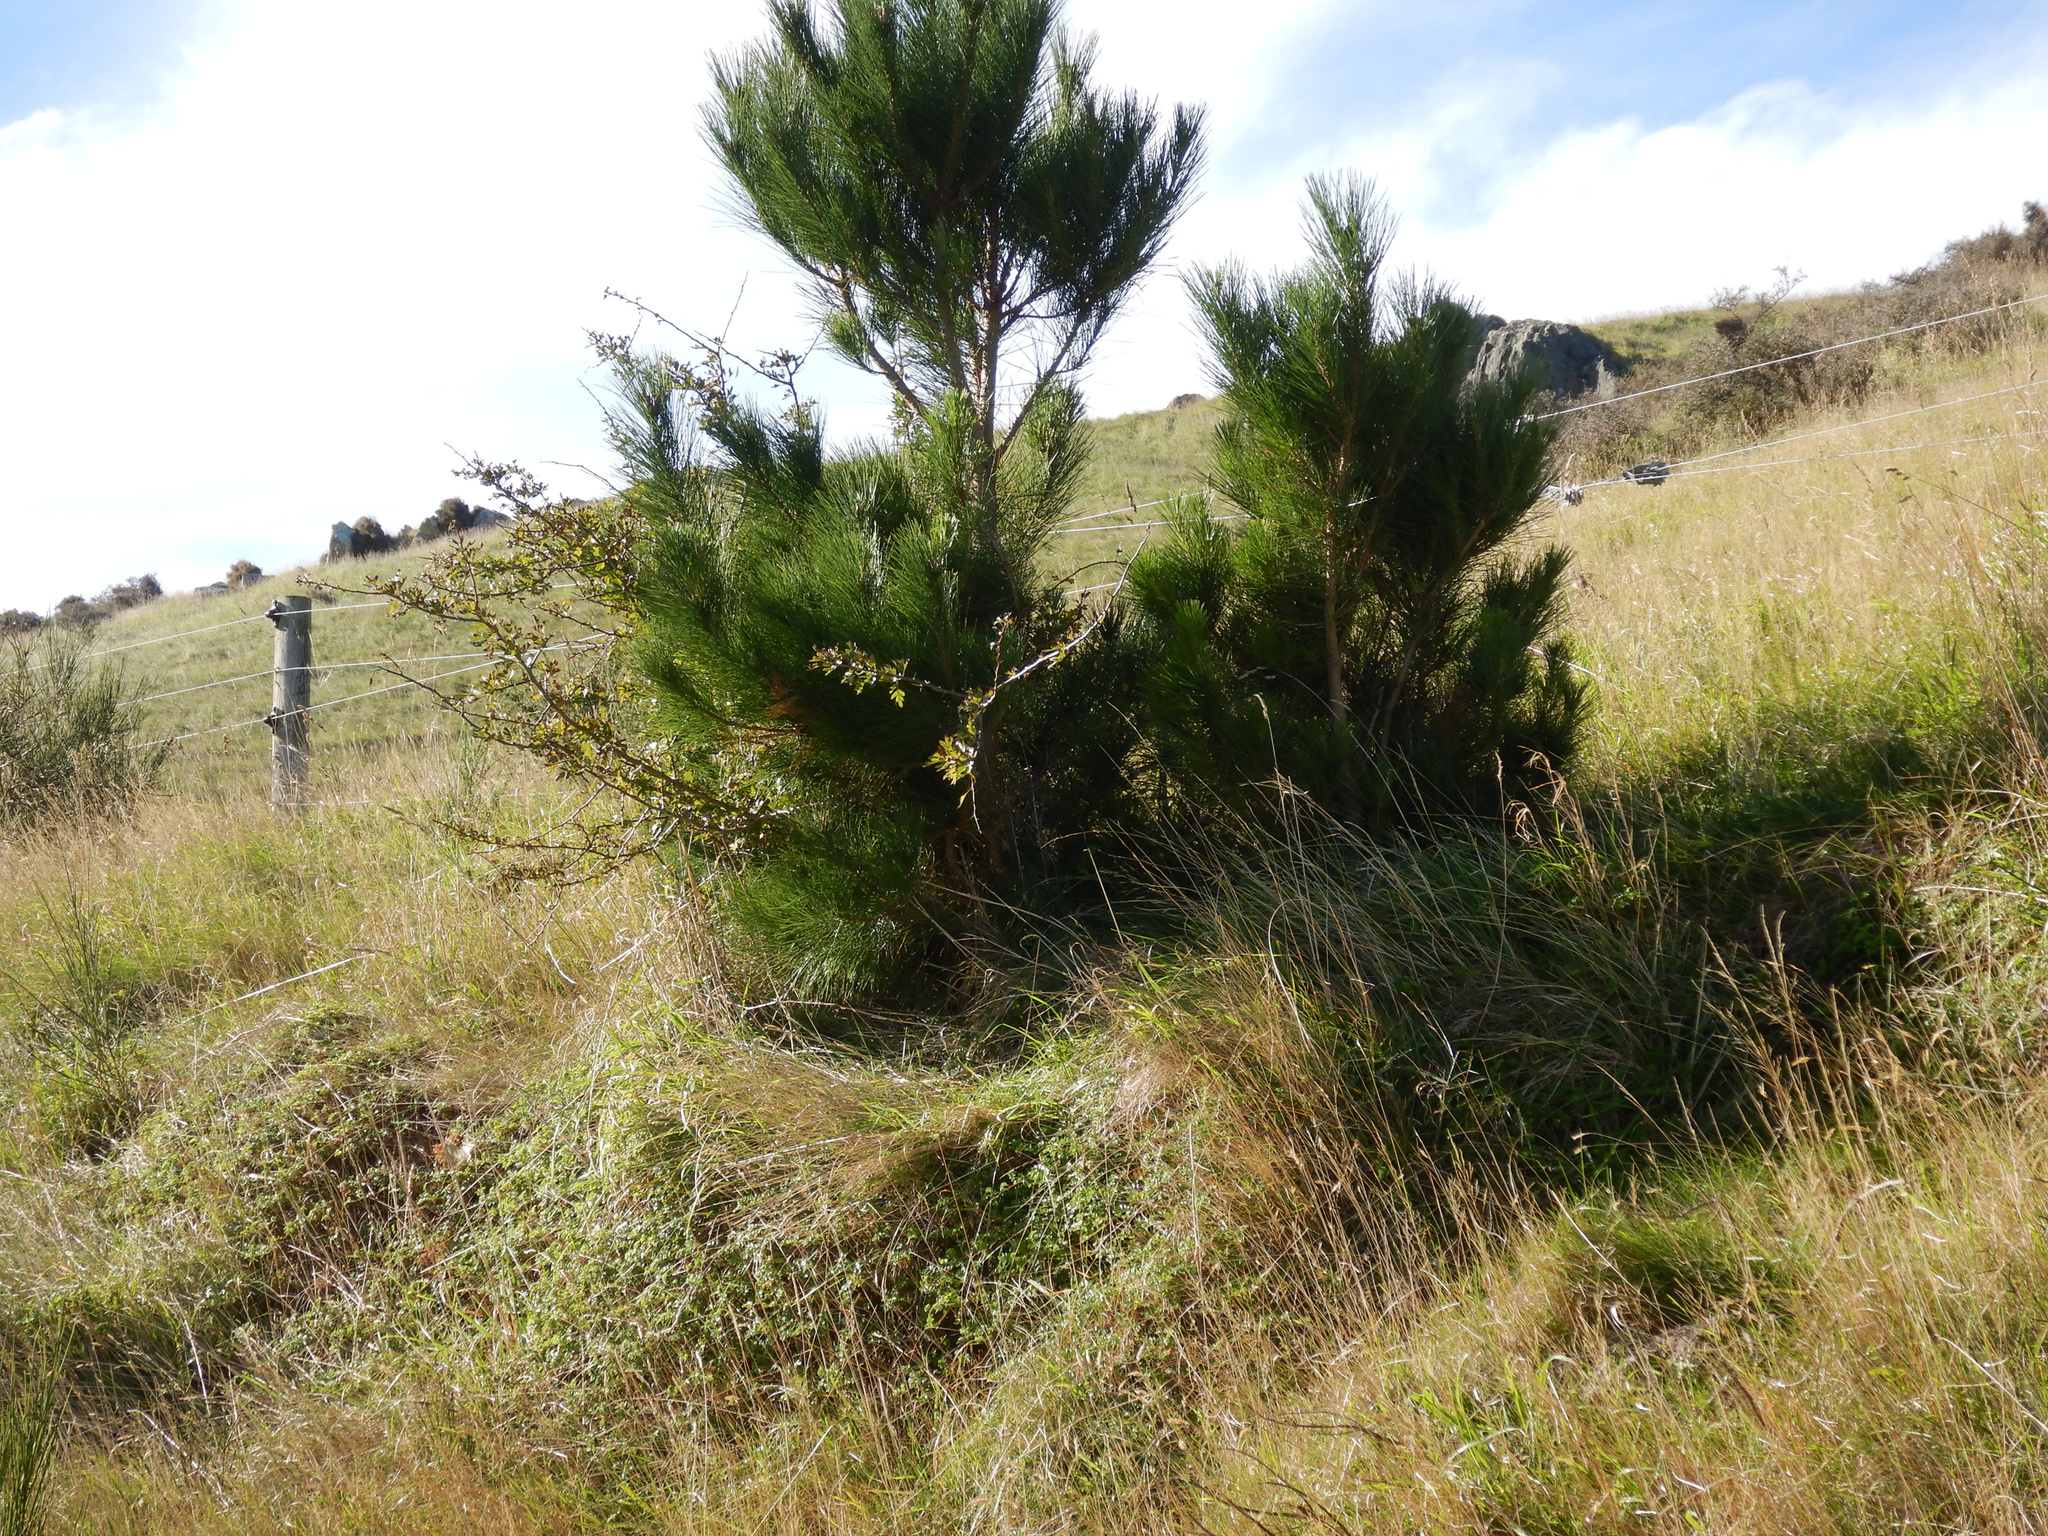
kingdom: Plantae
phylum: Tracheophyta
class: Pinopsida
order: Pinales
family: Pinaceae
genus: Pinus
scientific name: Pinus radiata
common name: Monterey pine
